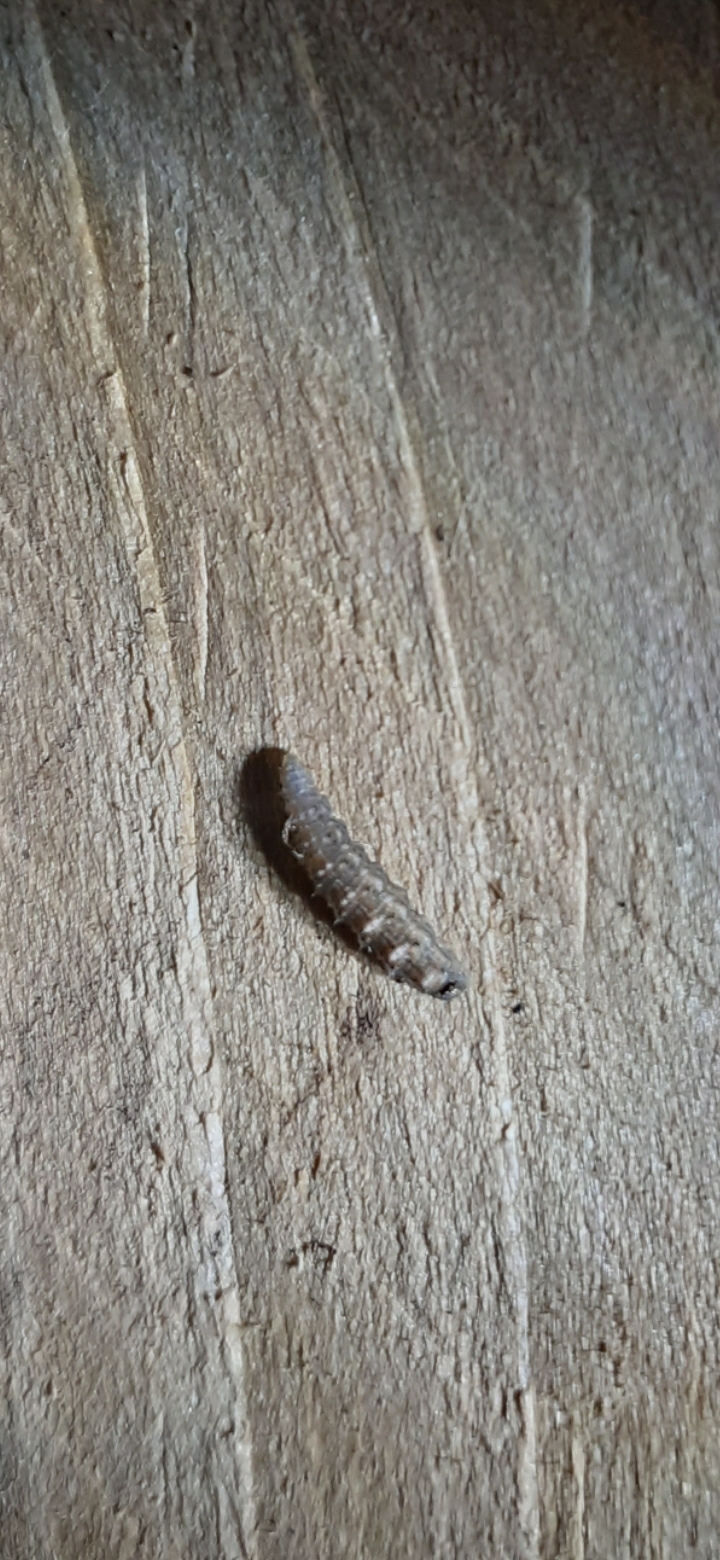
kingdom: Animalia
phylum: Arthropoda
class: Insecta
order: Diptera
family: Syrphidae
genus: Eupeodes
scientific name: Eupeodes
